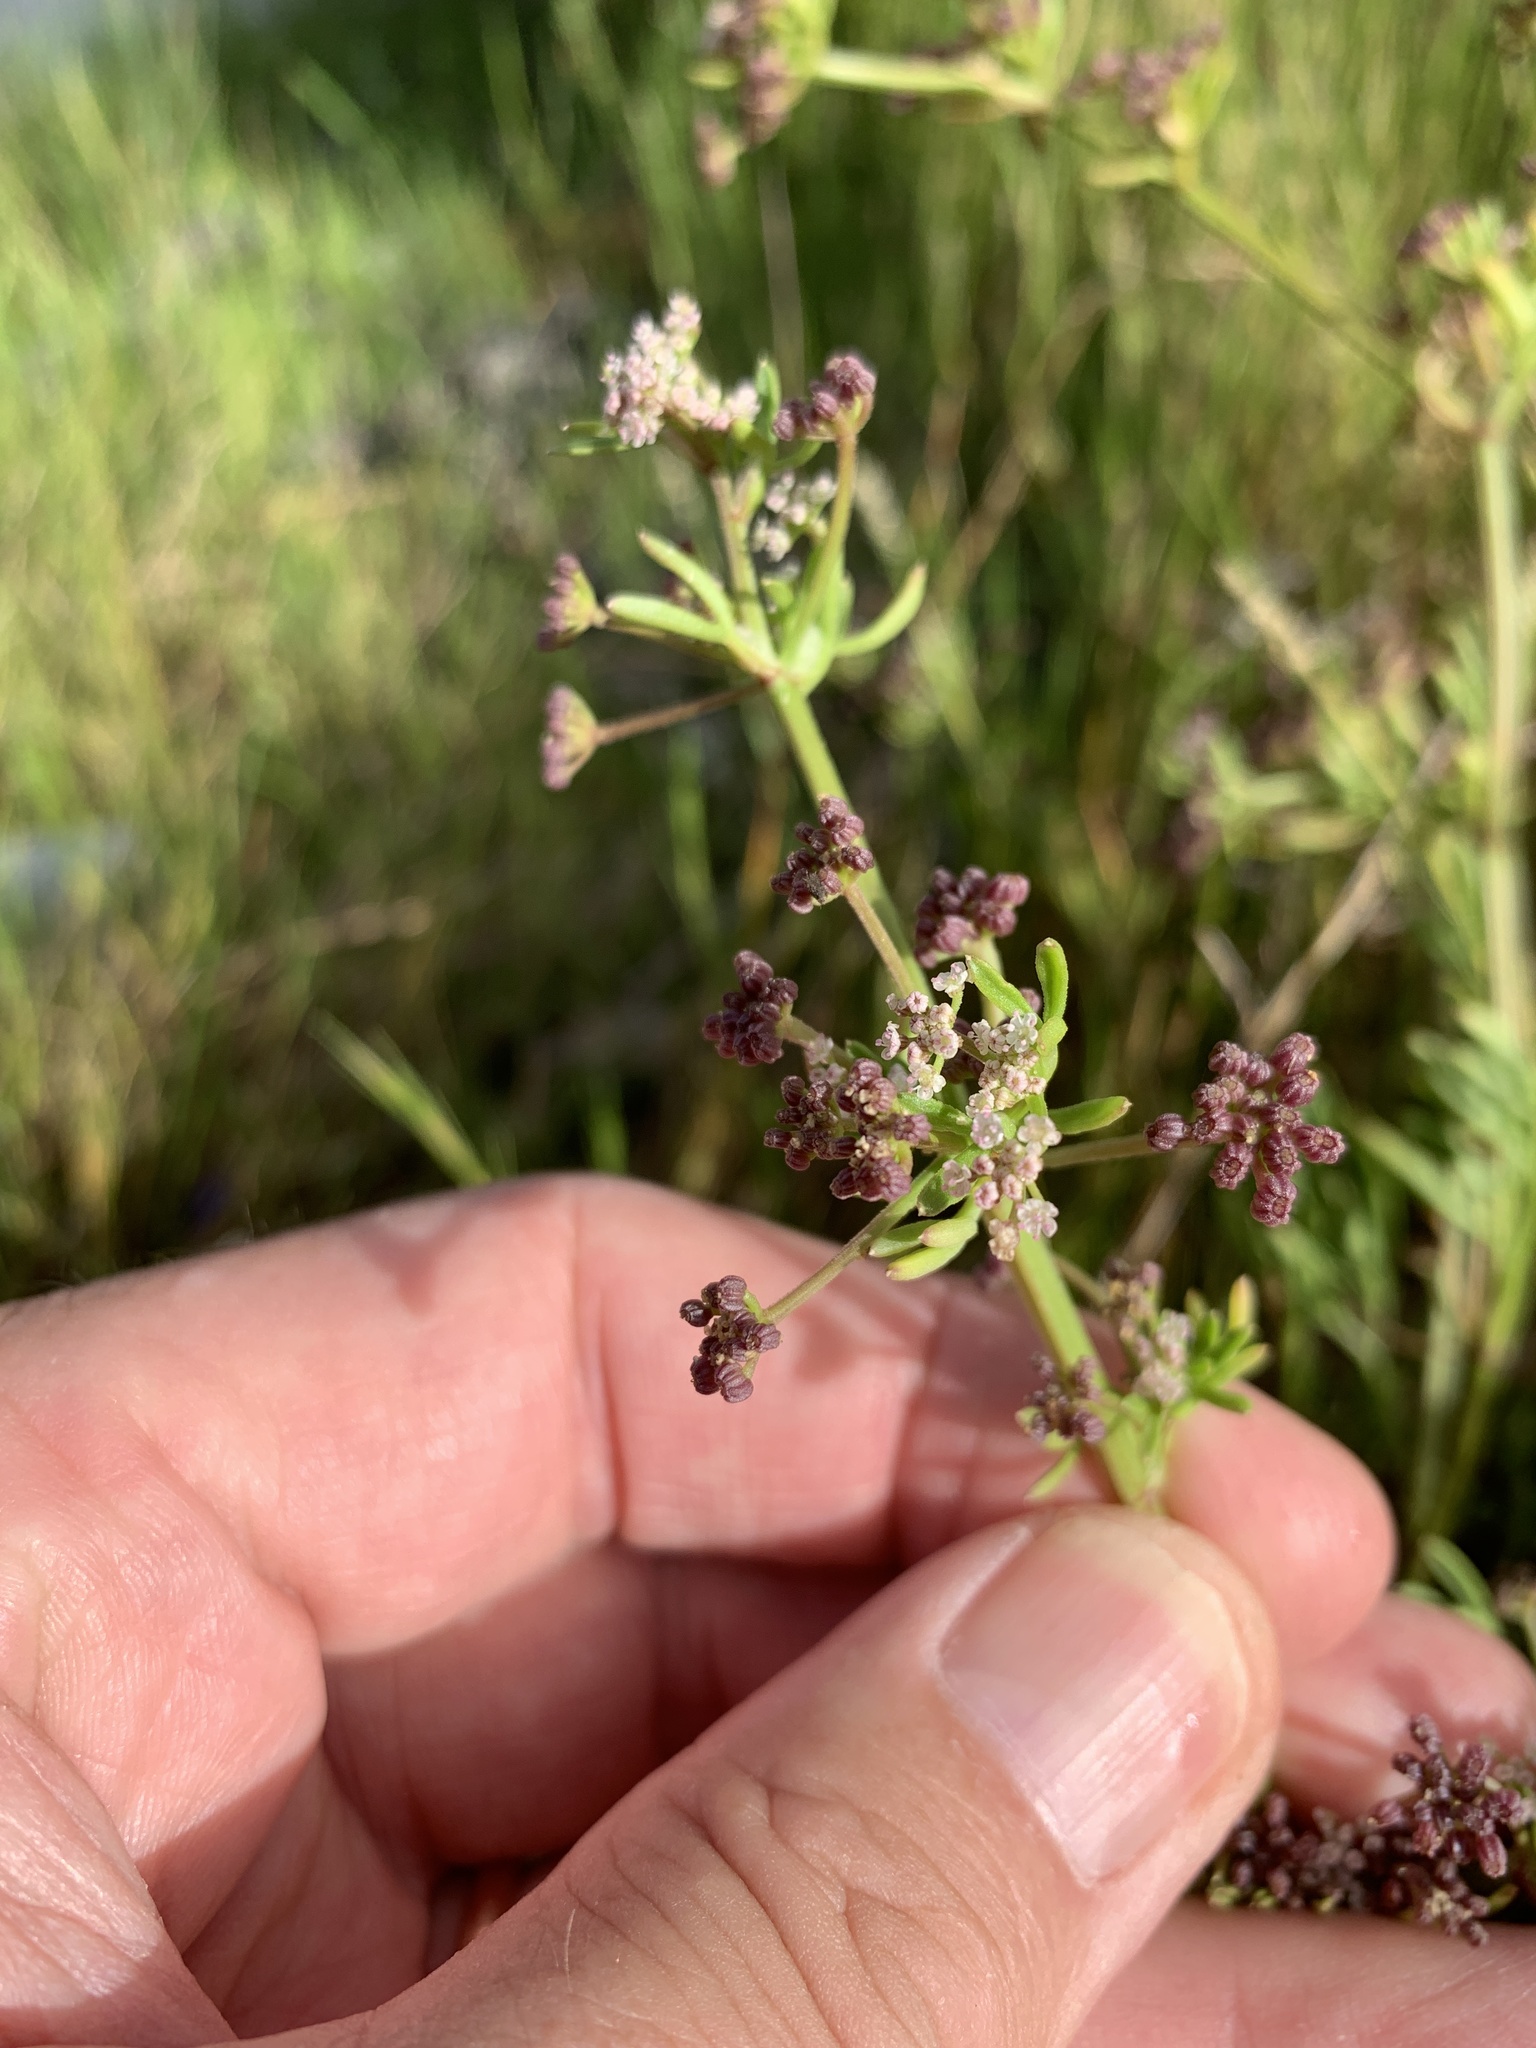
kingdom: Plantae
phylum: Tracheophyta
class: Magnoliopsida
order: Apiales
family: Apiaceae
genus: Apium
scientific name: Apium decumbens
